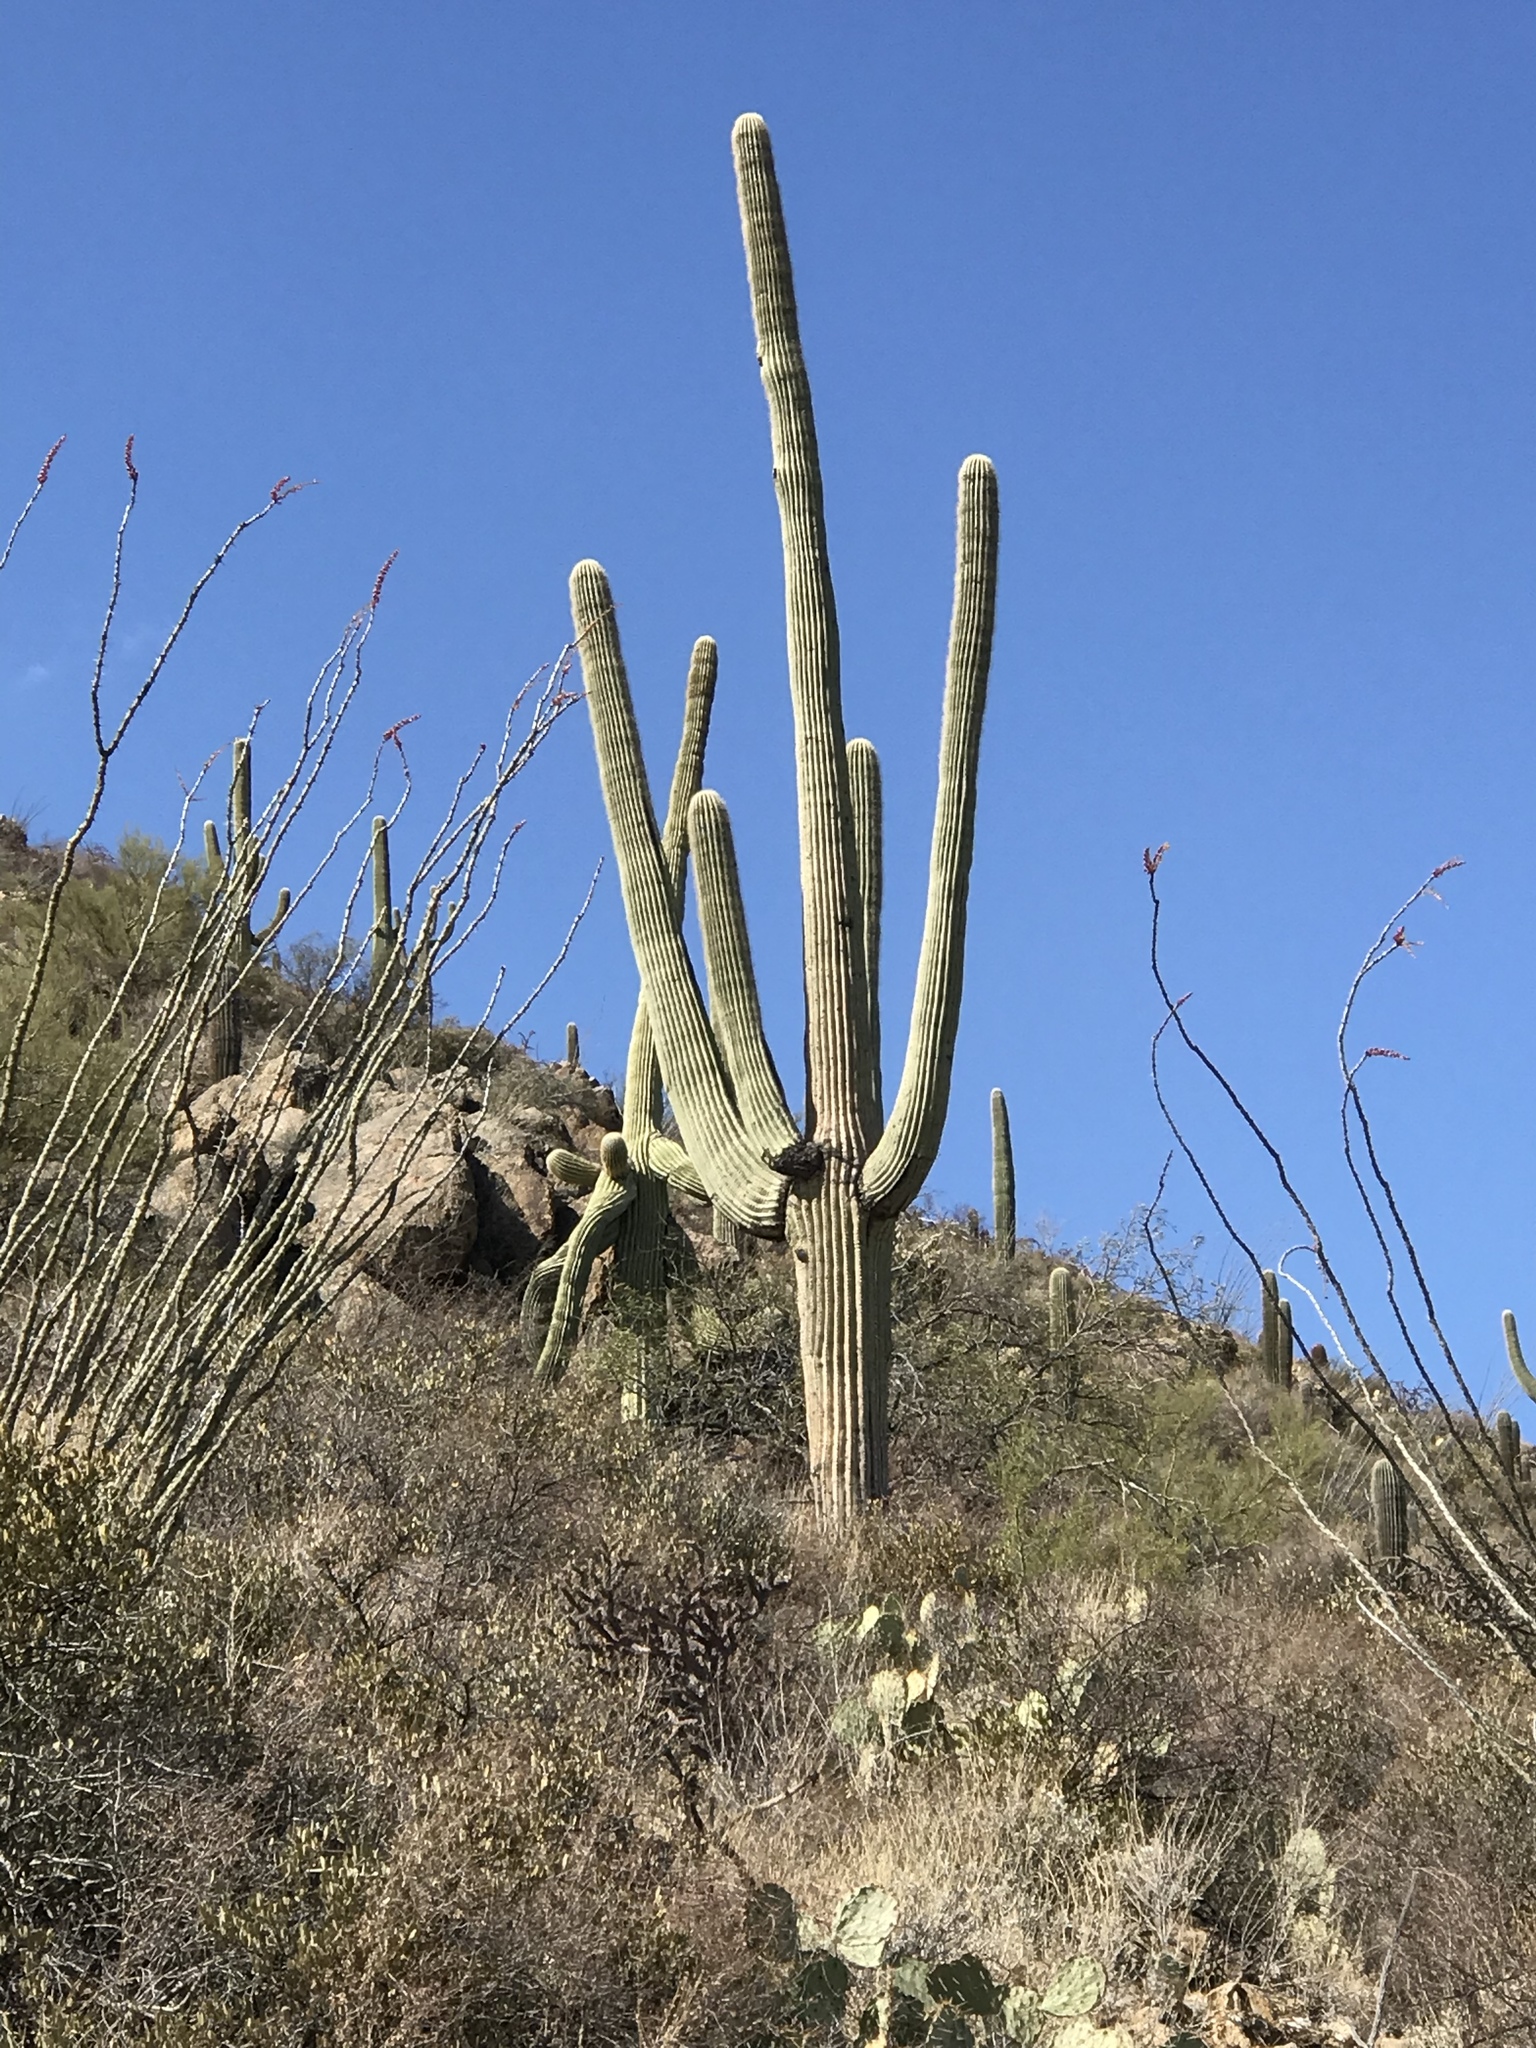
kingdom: Plantae
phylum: Tracheophyta
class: Magnoliopsida
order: Caryophyllales
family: Cactaceae
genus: Carnegiea
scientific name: Carnegiea gigantea
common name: Saguaro
